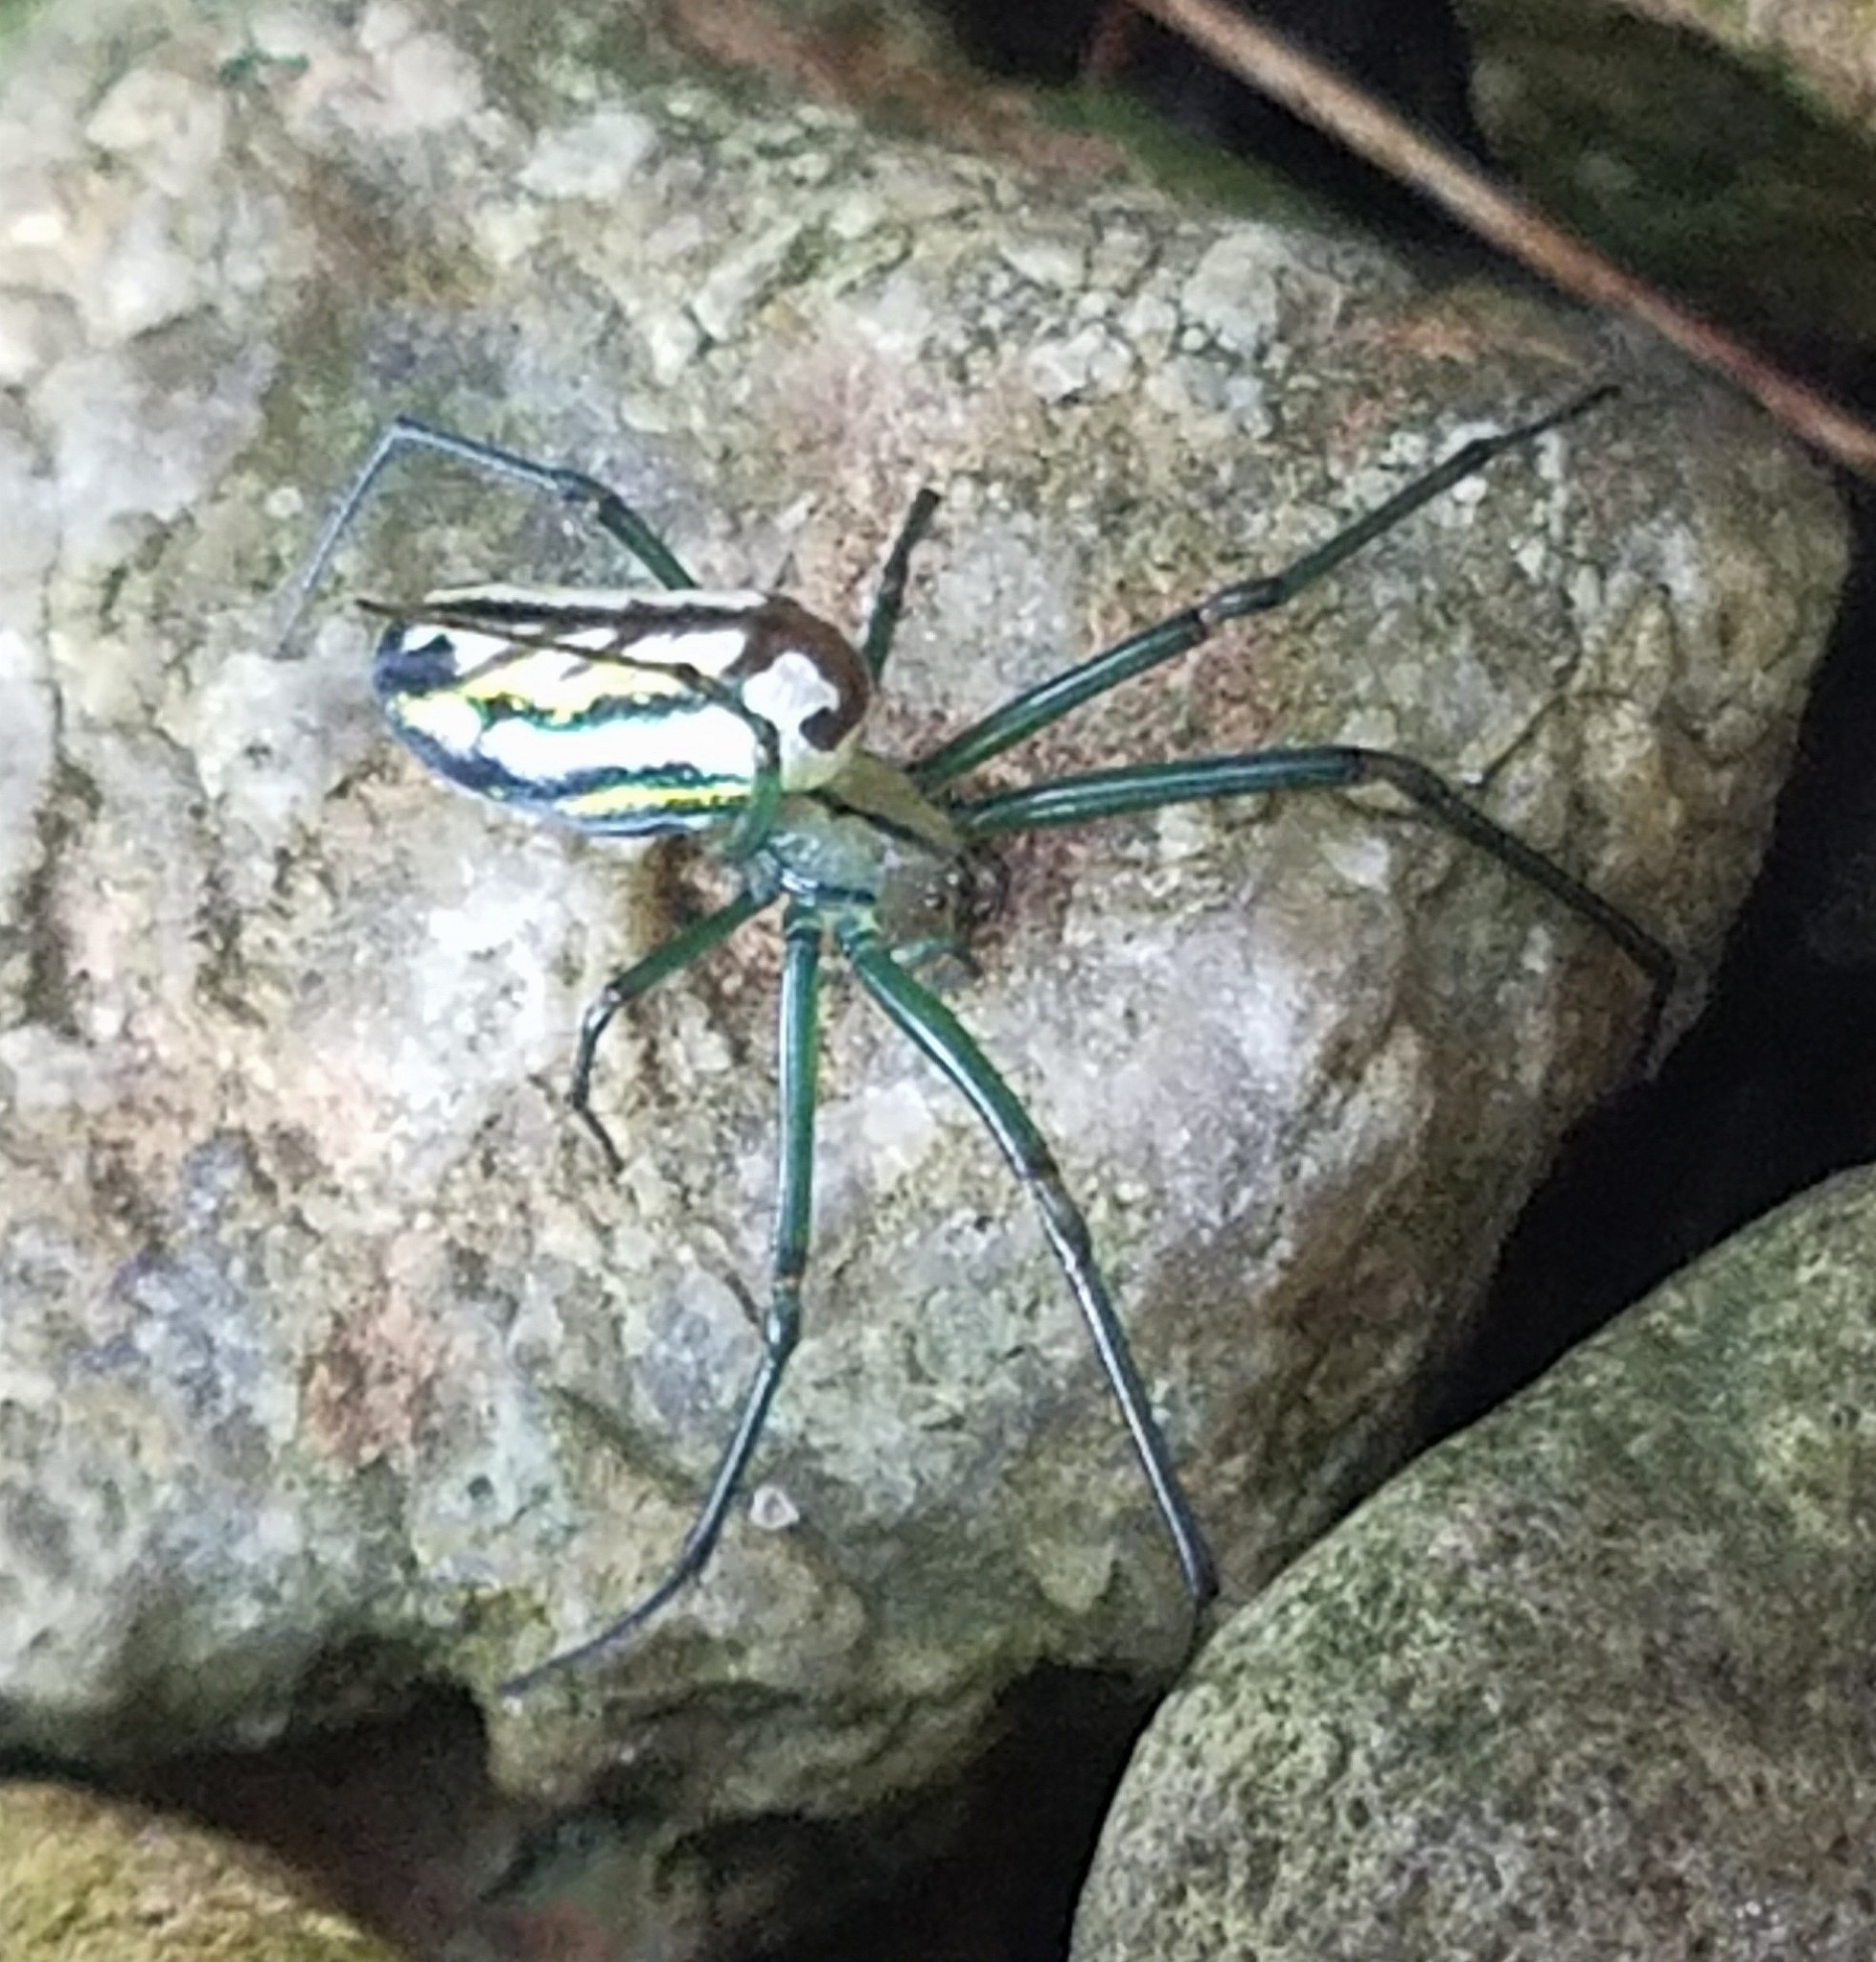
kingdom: Animalia
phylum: Arthropoda
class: Arachnida
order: Araneae
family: Tetragnathidae
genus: Leucauge
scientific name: Leucauge venusta
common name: Longjawed orb weavers
